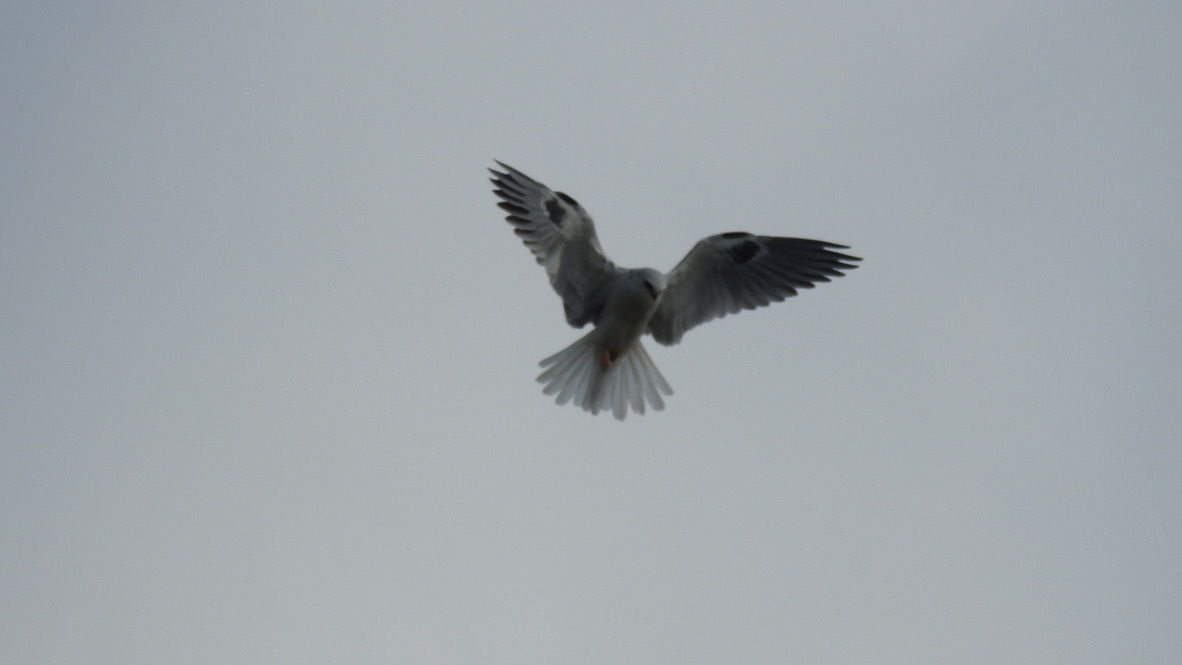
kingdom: Animalia
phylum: Chordata
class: Aves
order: Accipitriformes
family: Accipitridae
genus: Elanus
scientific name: Elanus leucurus
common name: White-tailed kite
